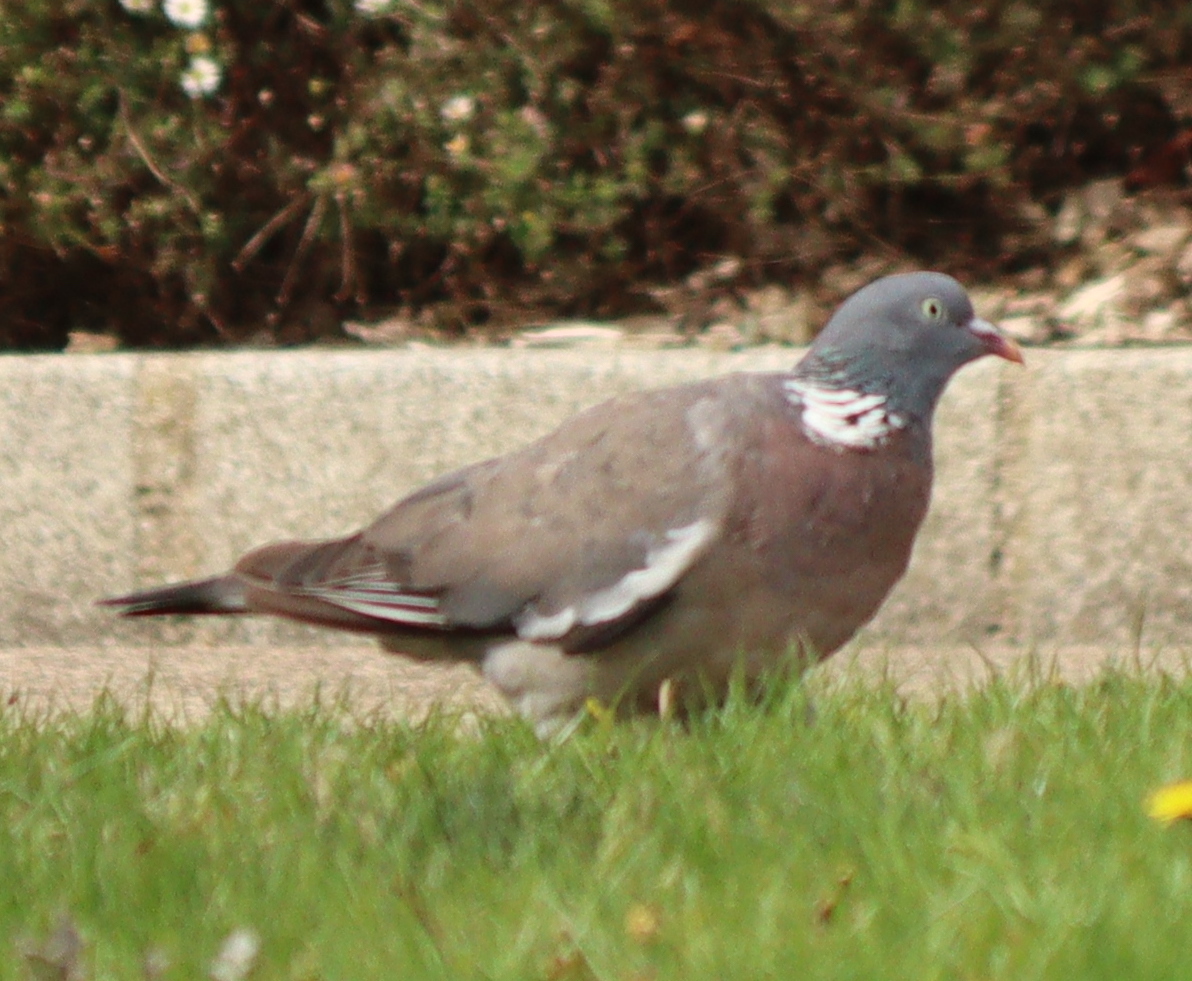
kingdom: Animalia
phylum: Chordata
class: Aves
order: Columbiformes
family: Columbidae
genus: Columba
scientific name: Columba palumbus
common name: Common wood pigeon
